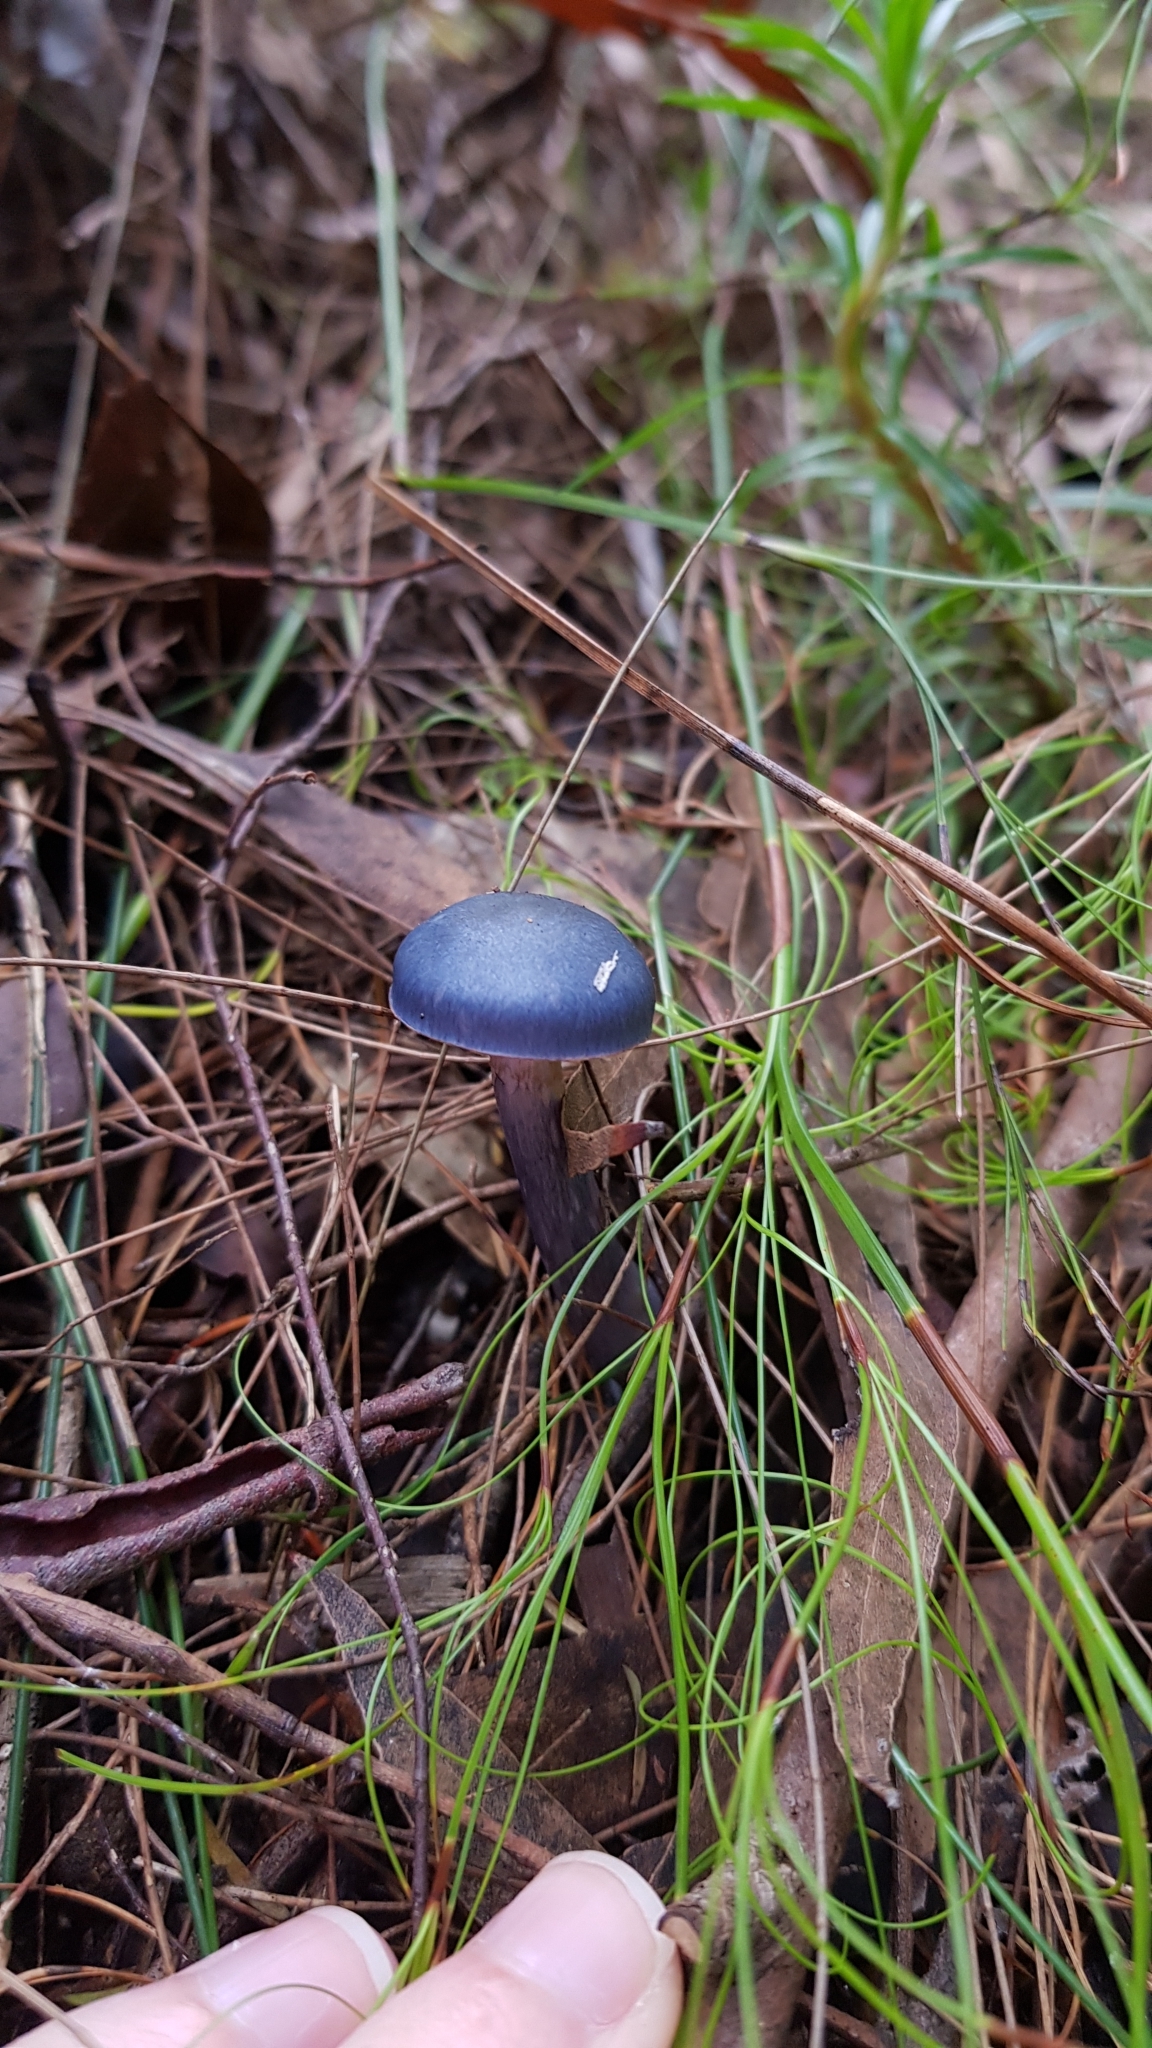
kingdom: Fungi
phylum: Basidiomycota
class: Agaricomycetes
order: Agaricales
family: Cortinariaceae
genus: Cortinarius
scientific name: Cortinarius rotundisporus
